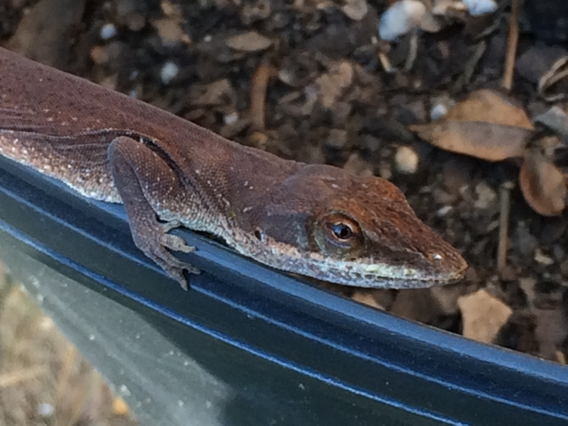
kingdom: Animalia
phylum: Chordata
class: Squamata
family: Dactyloidae
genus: Anolis
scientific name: Anolis carolinensis
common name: Green anole
